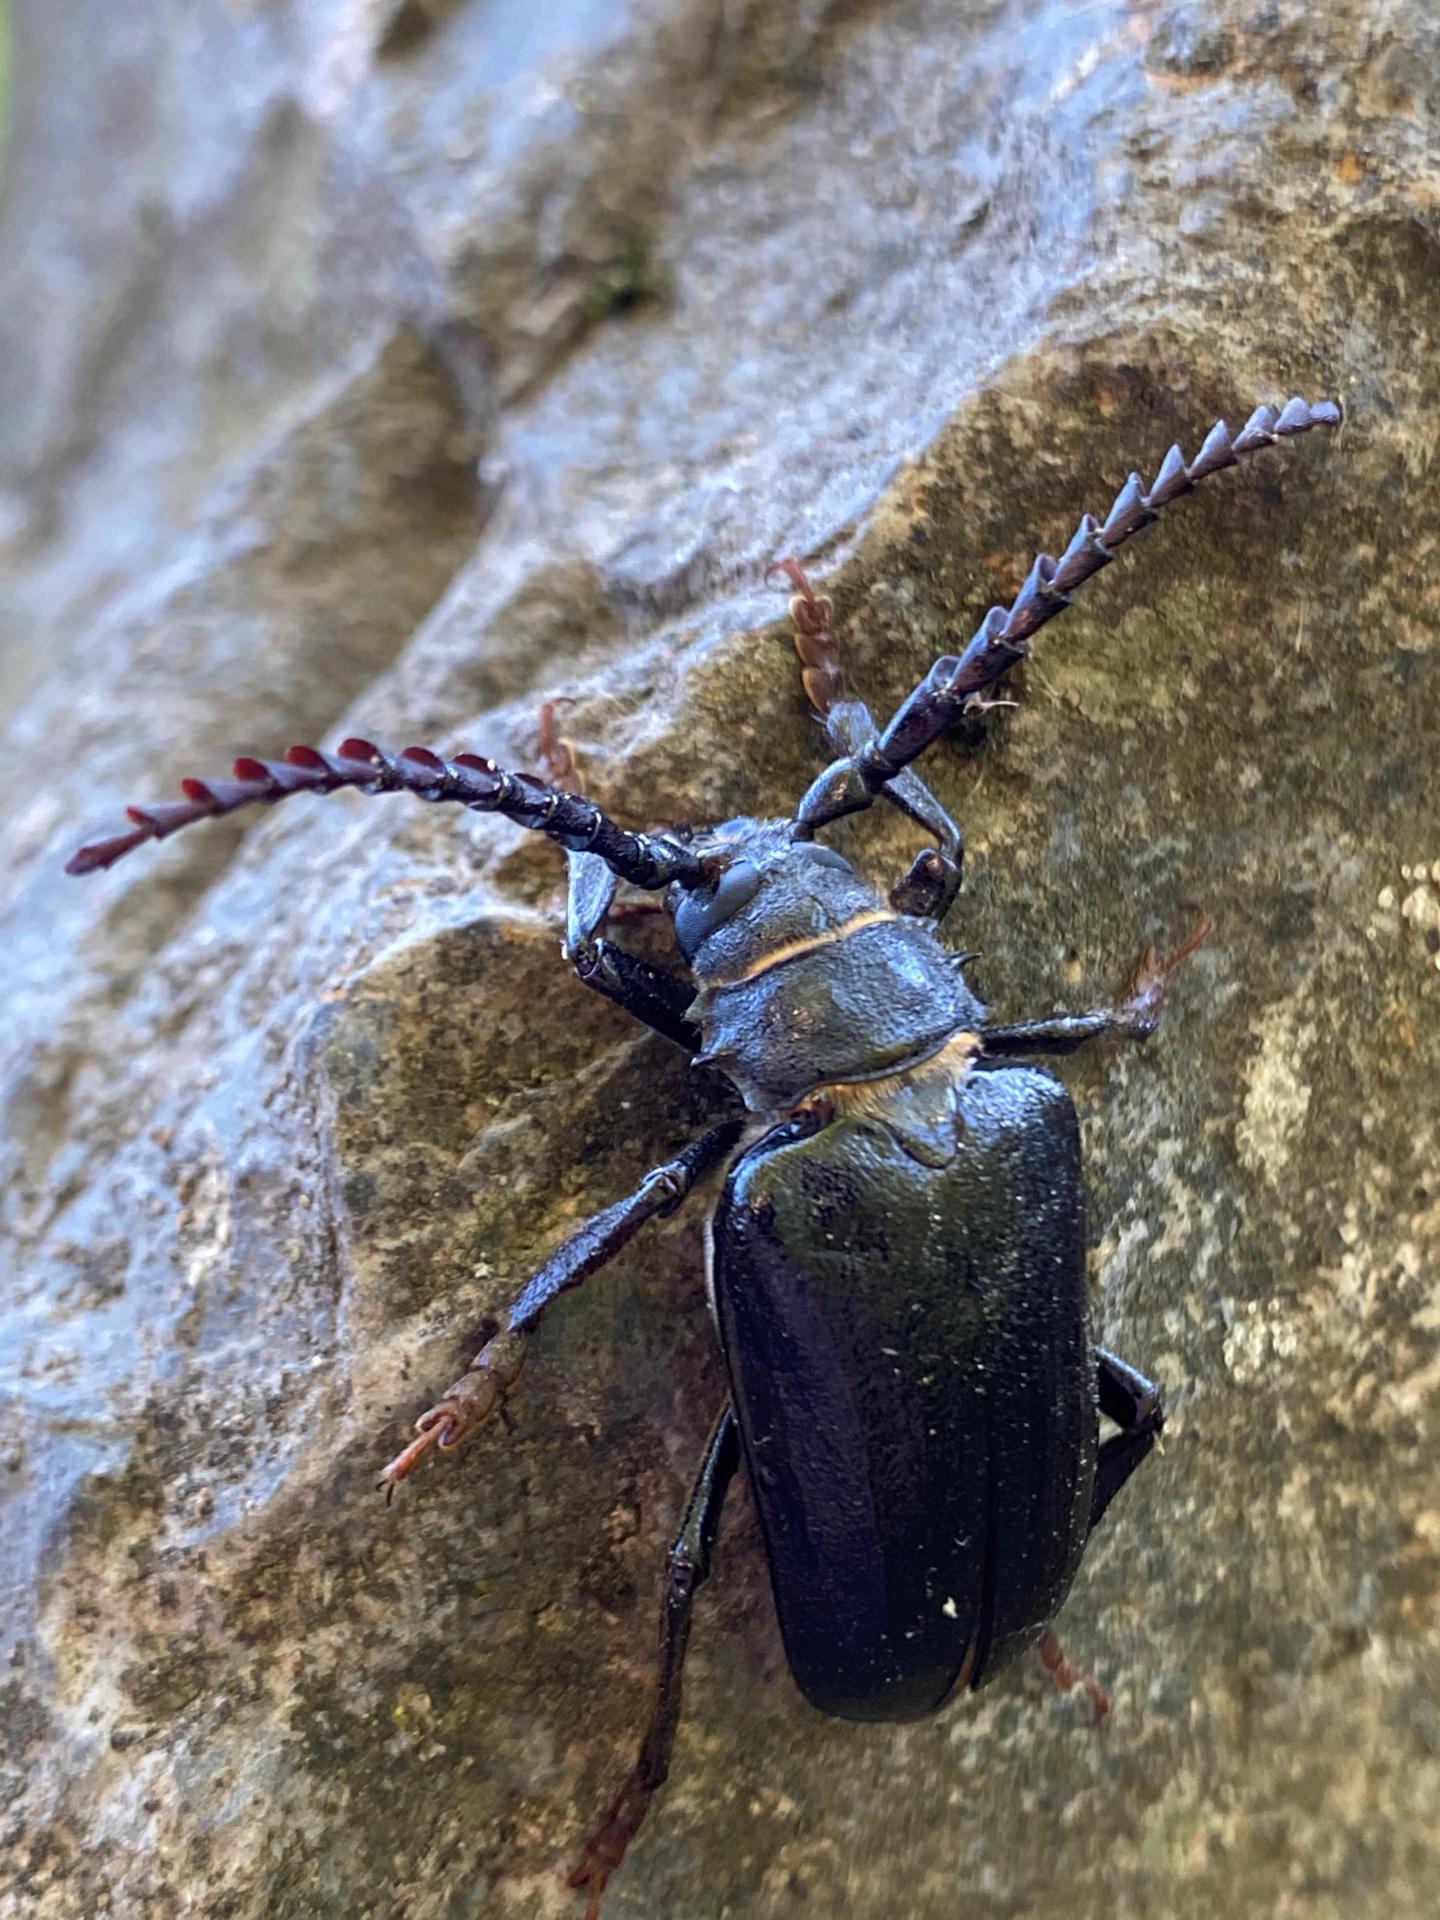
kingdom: Animalia
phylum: Arthropoda
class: Insecta
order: Coleoptera
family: Cerambycidae
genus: Prionus
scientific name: Prionus coriarius
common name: Tanner beetle
